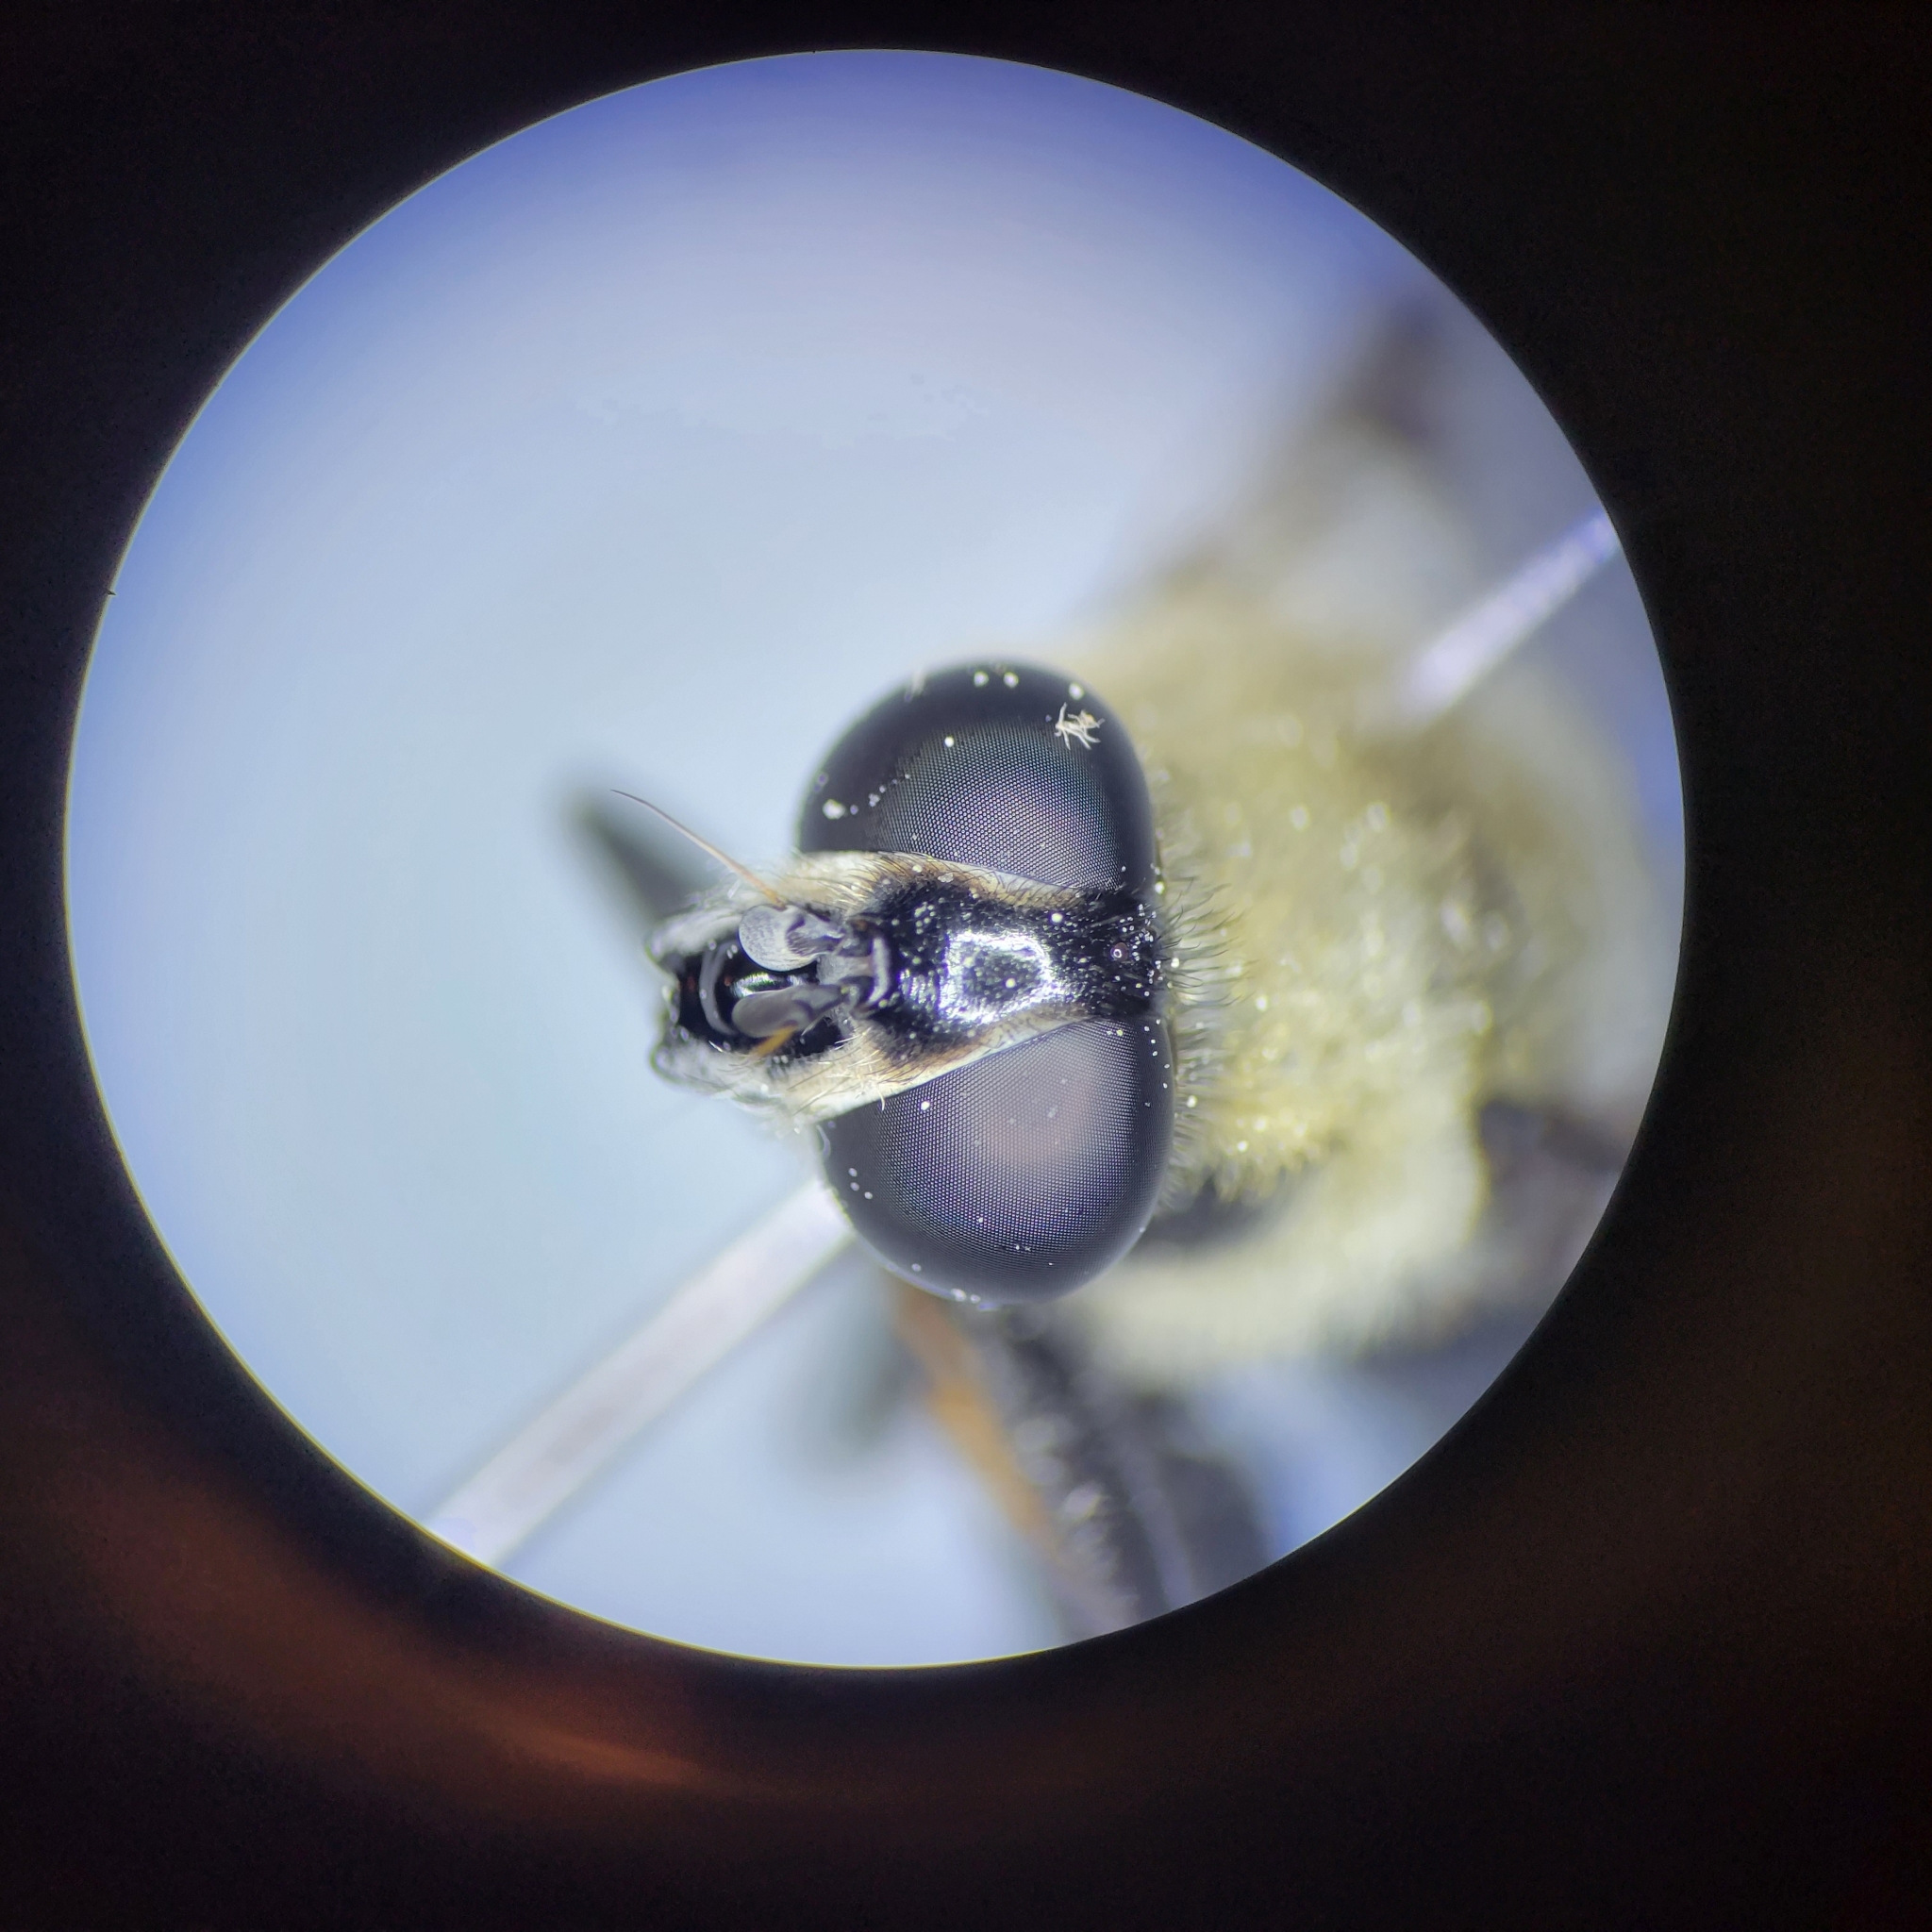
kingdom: Animalia
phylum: Arthropoda
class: Insecta
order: Diptera
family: Syrphidae
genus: Imatisma
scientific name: Imatisma bautias
